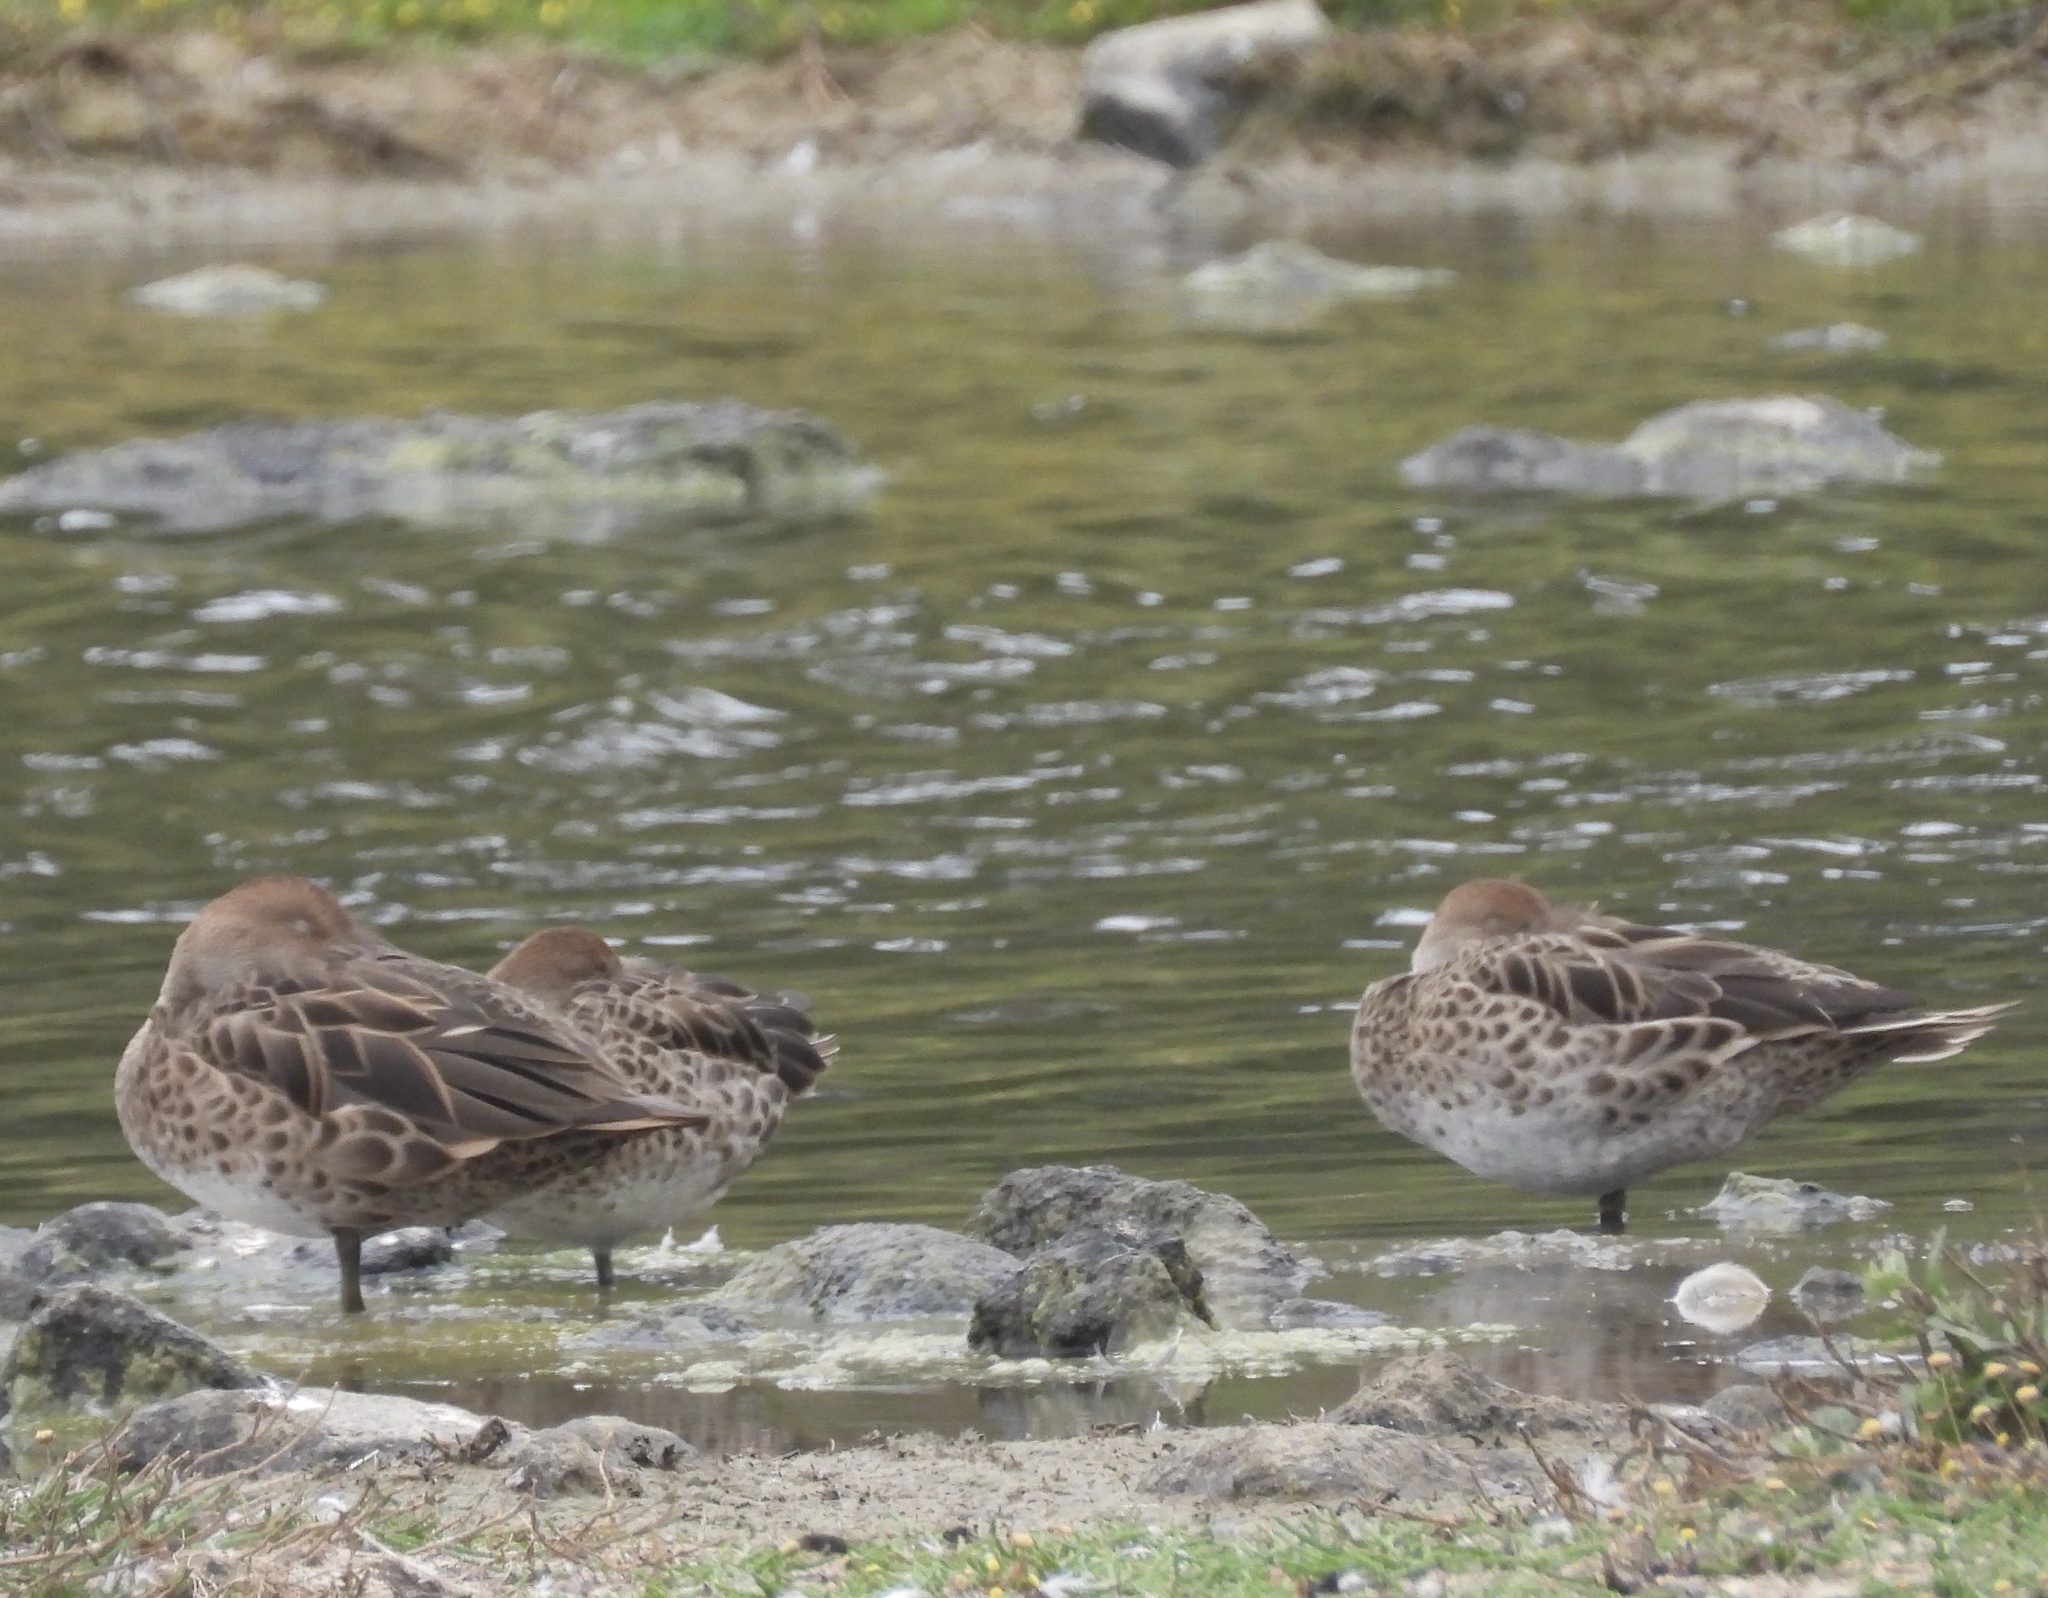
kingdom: Animalia
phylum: Chordata
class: Aves
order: Anseriformes
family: Anatidae
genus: Anas
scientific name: Anas georgica
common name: Yellow-billed pintail
